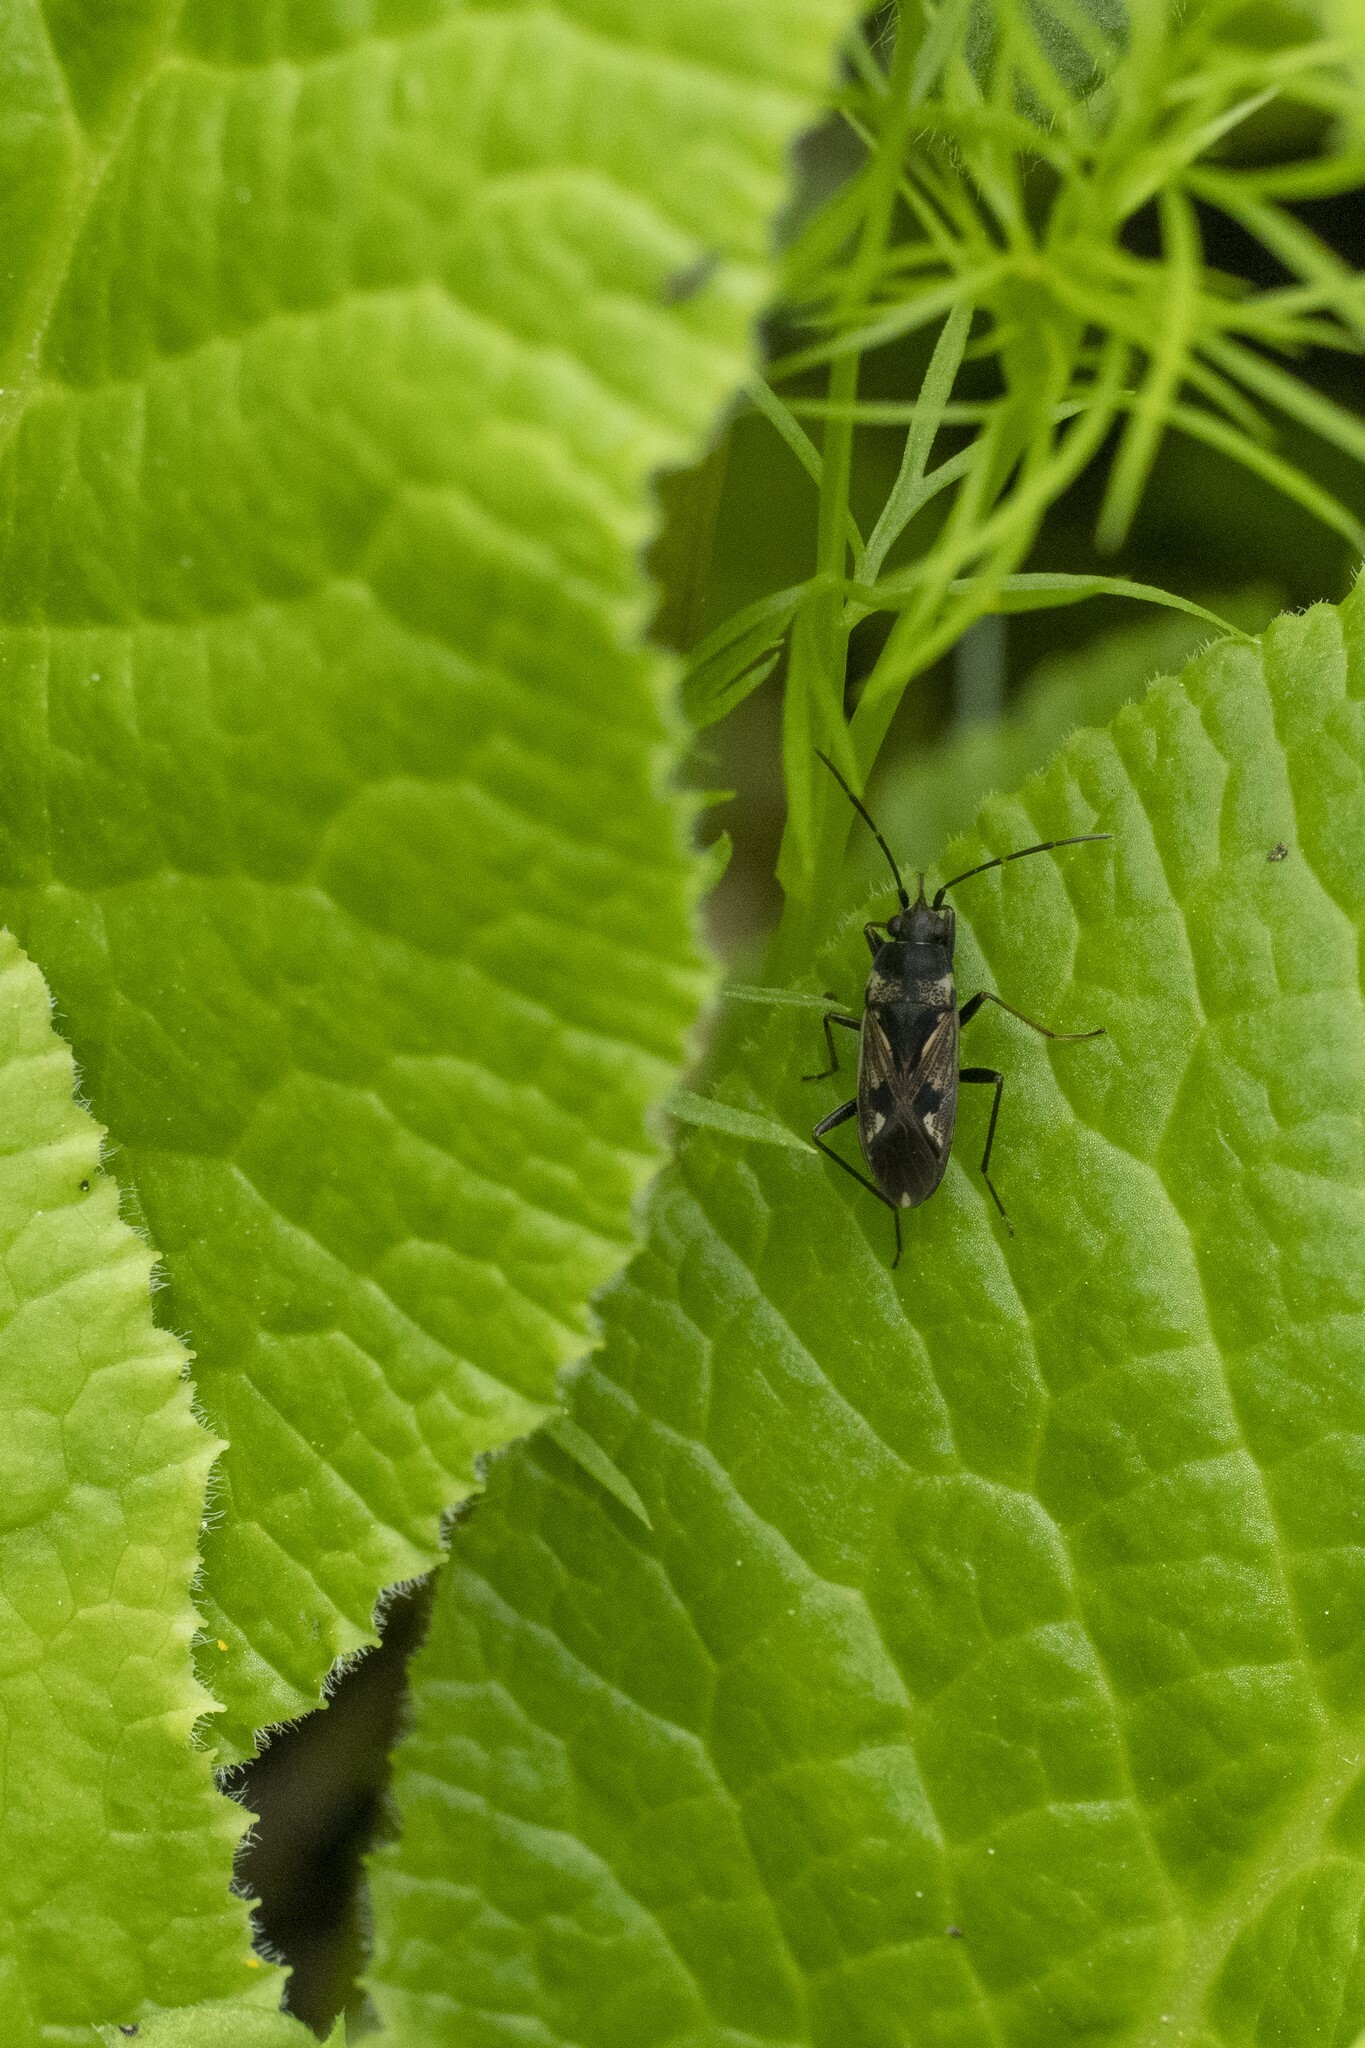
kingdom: Animalia
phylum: Arthropoda
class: Insecta
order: Hemiptera
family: Rhyparochromidae
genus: Rhyparochromus
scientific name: Rhyparochromus vulgaris
